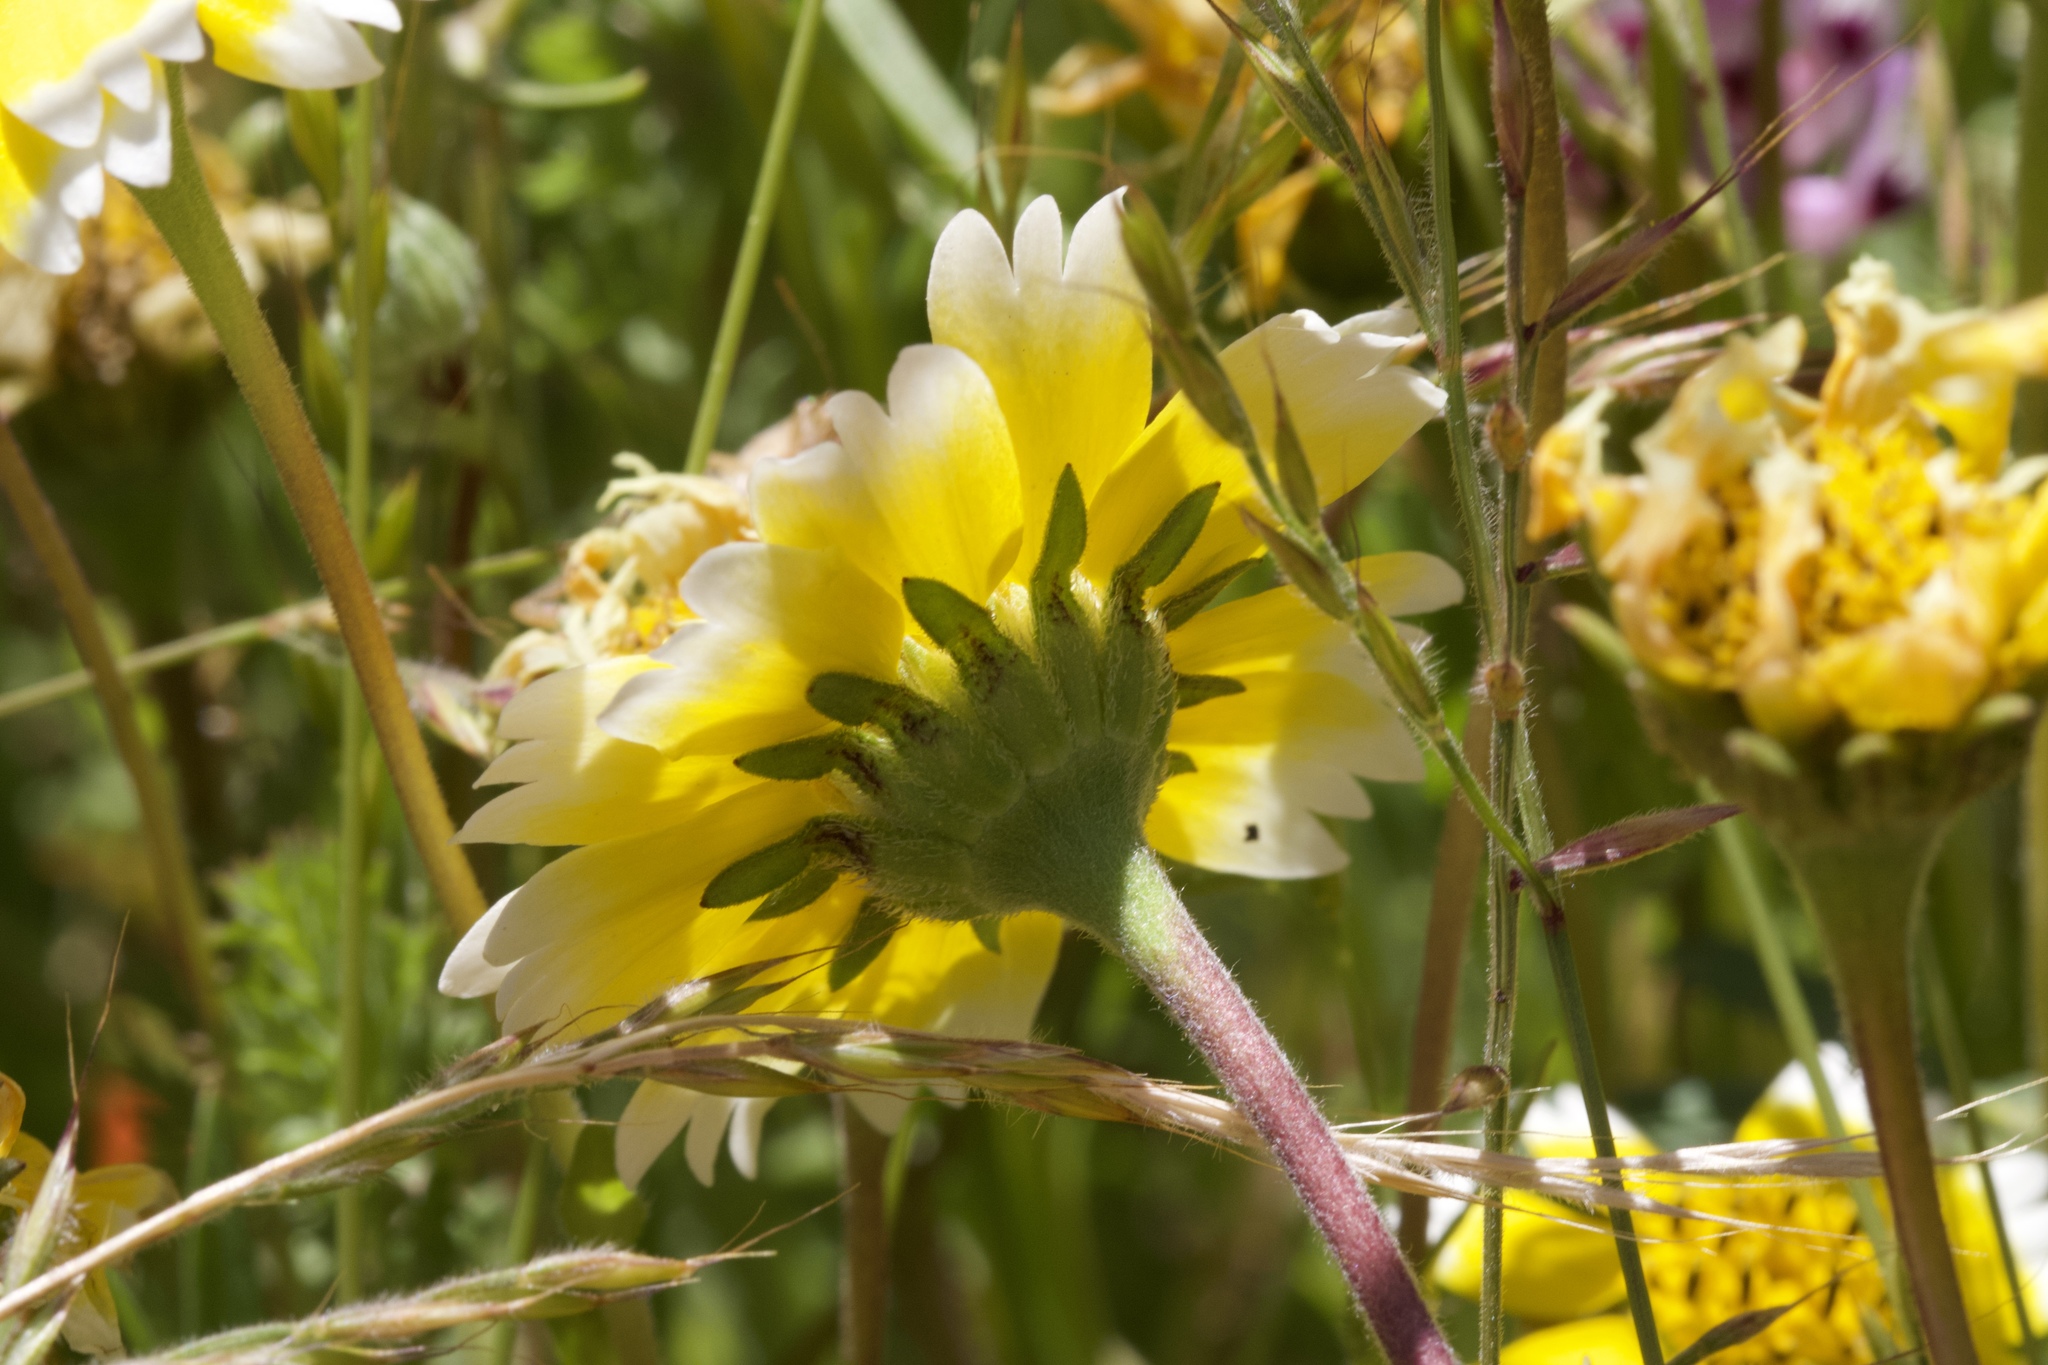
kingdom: Plantae
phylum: Tracheophyta
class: Magnoliopsida
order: Asterales
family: Asteraceae
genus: Layia
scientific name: Layia chrysanthemoides
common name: Smooth layia
